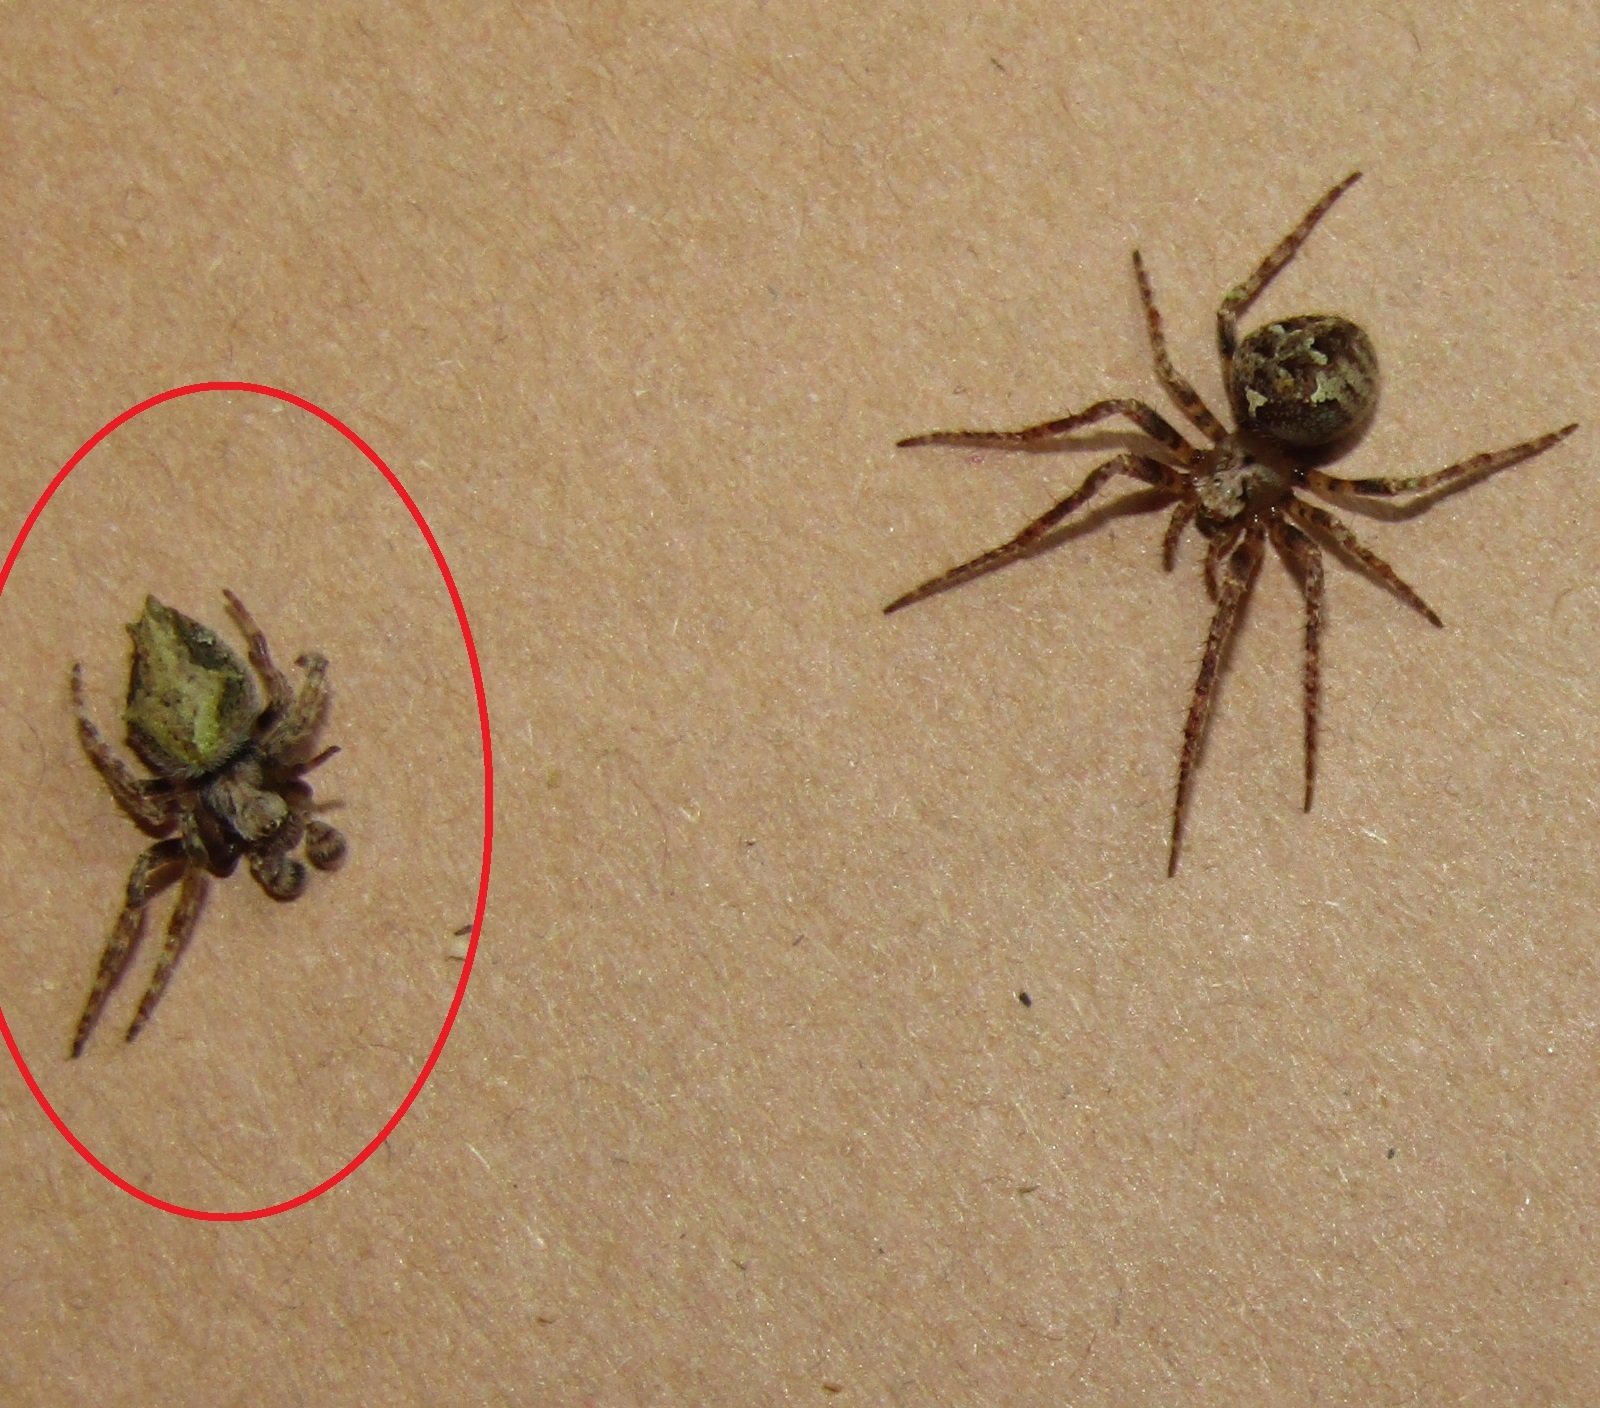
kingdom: Animalia
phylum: Arthropoda
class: Arachnida
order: Araneae
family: Araneidae
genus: Eriophora
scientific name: Eriophora pustulosa
